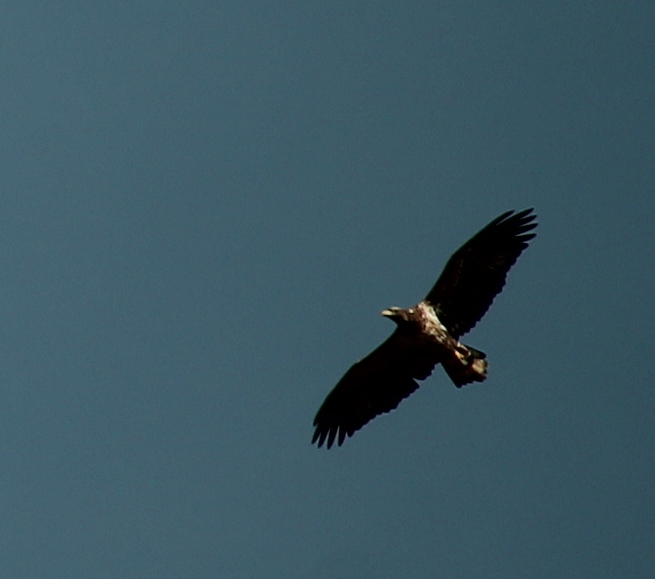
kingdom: Animalia
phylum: Chordata
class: Aves
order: Accipitriformes
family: Accipitridae
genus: Haliaeetus
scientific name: Haliaeetus leucocephalus
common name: Bald eagle
